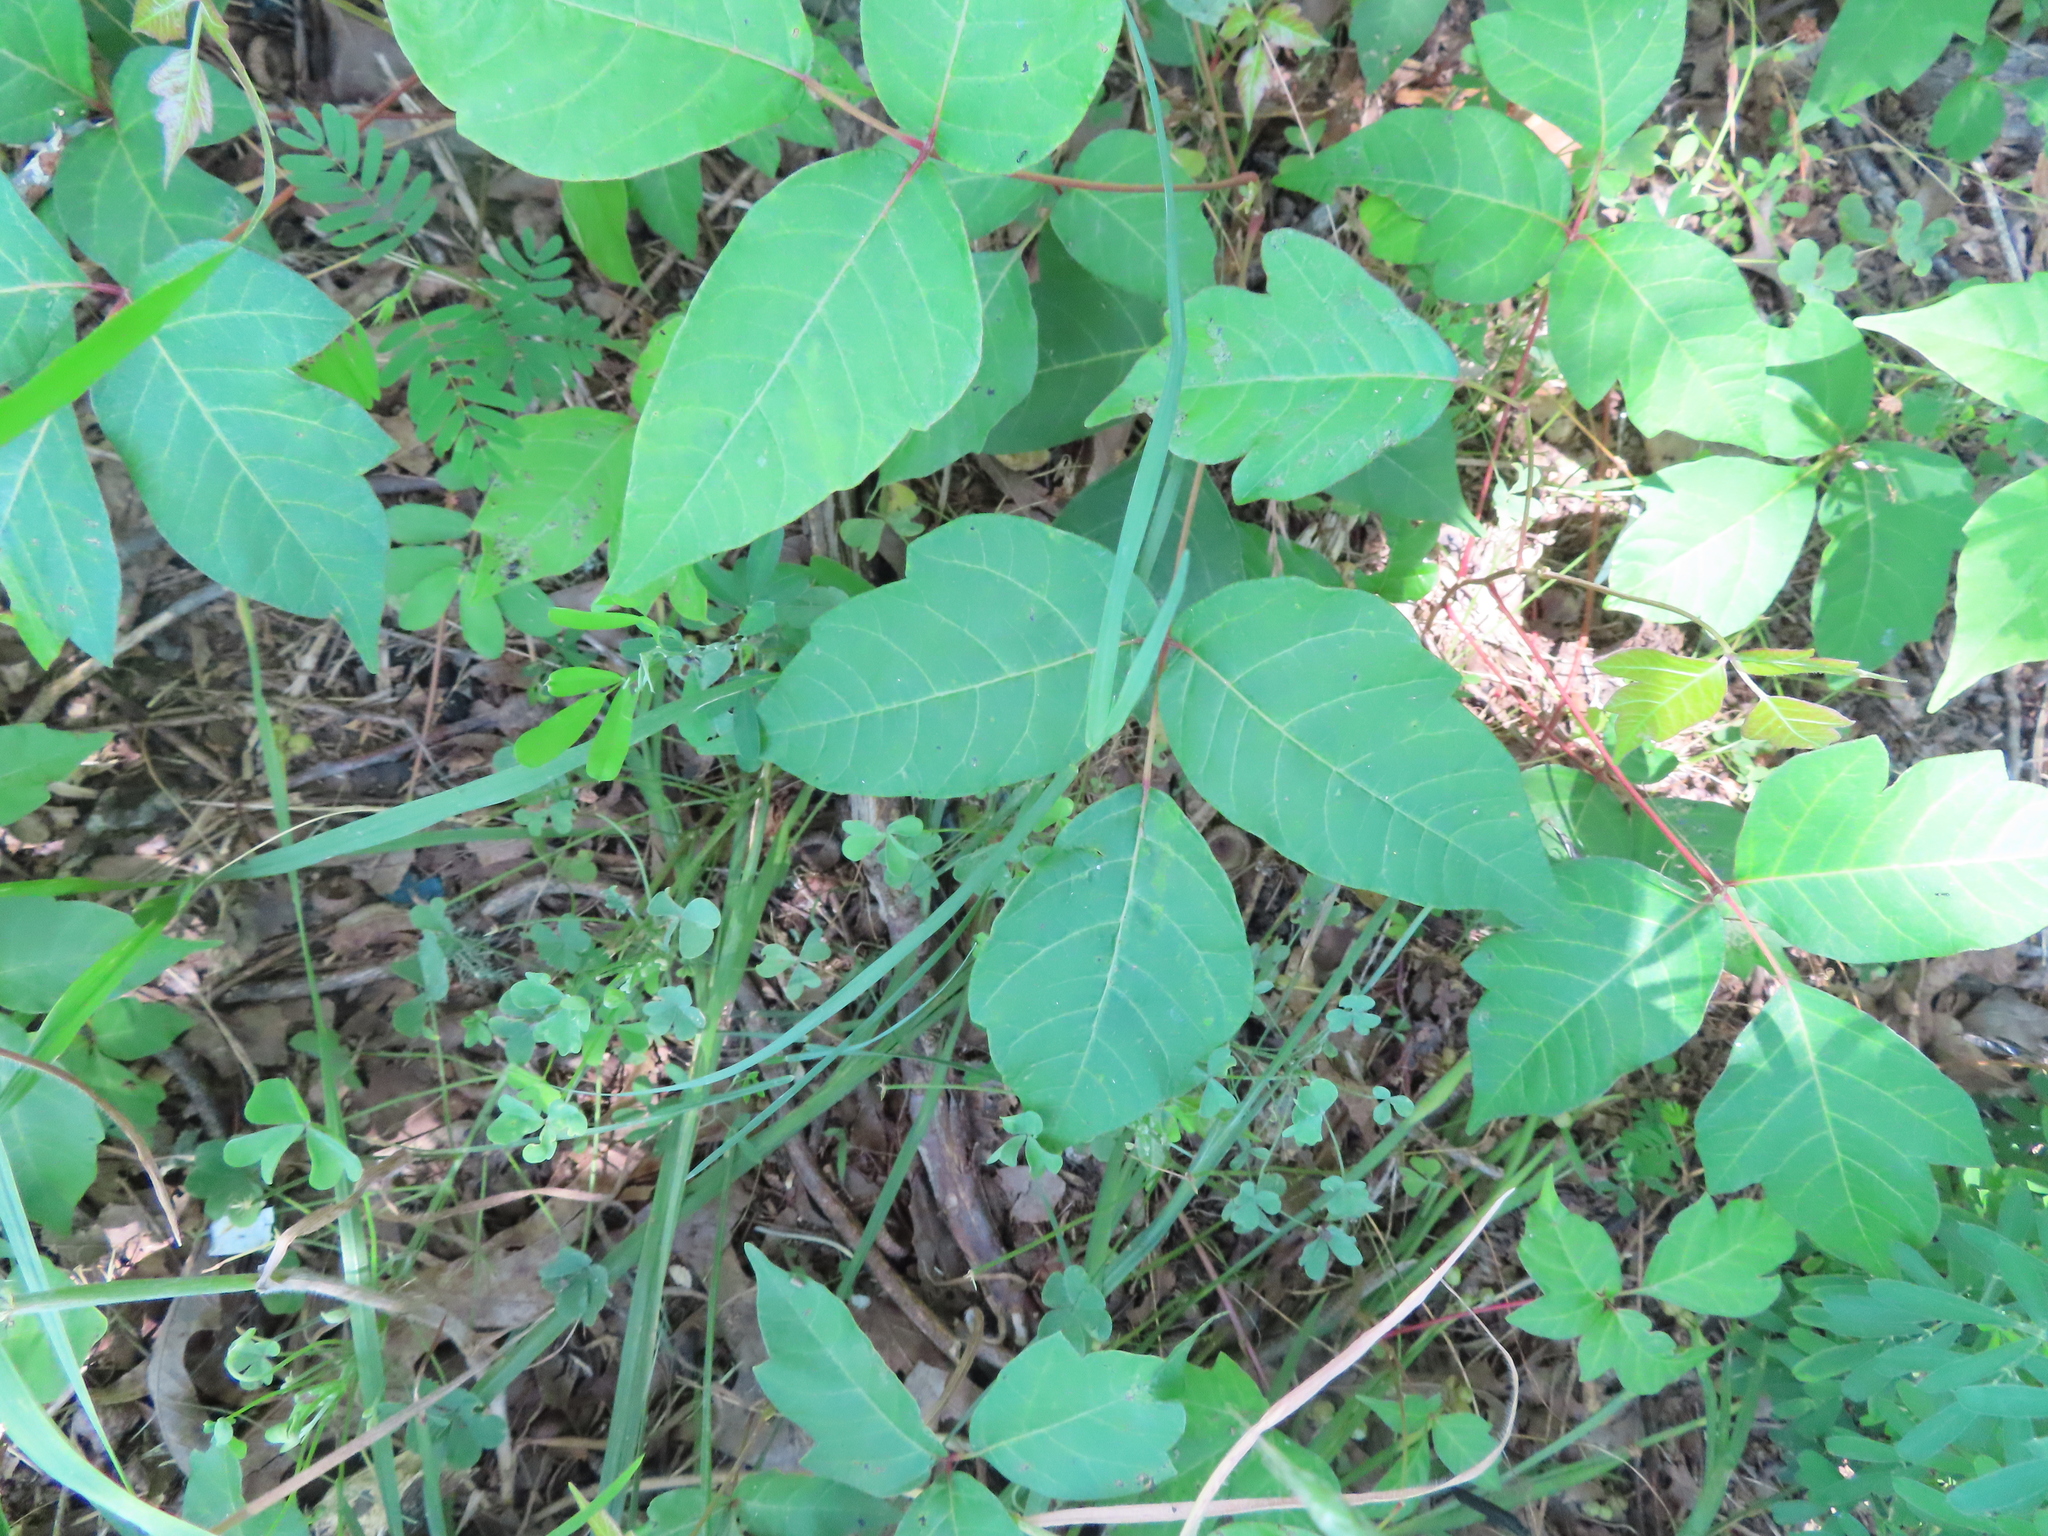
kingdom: Plantae
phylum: Tracheophyta
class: Magnoliopsida
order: Sapindales
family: Anacardiaceae
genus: Toxicodendron
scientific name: Toxicodendron radicans
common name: Poison ivy
